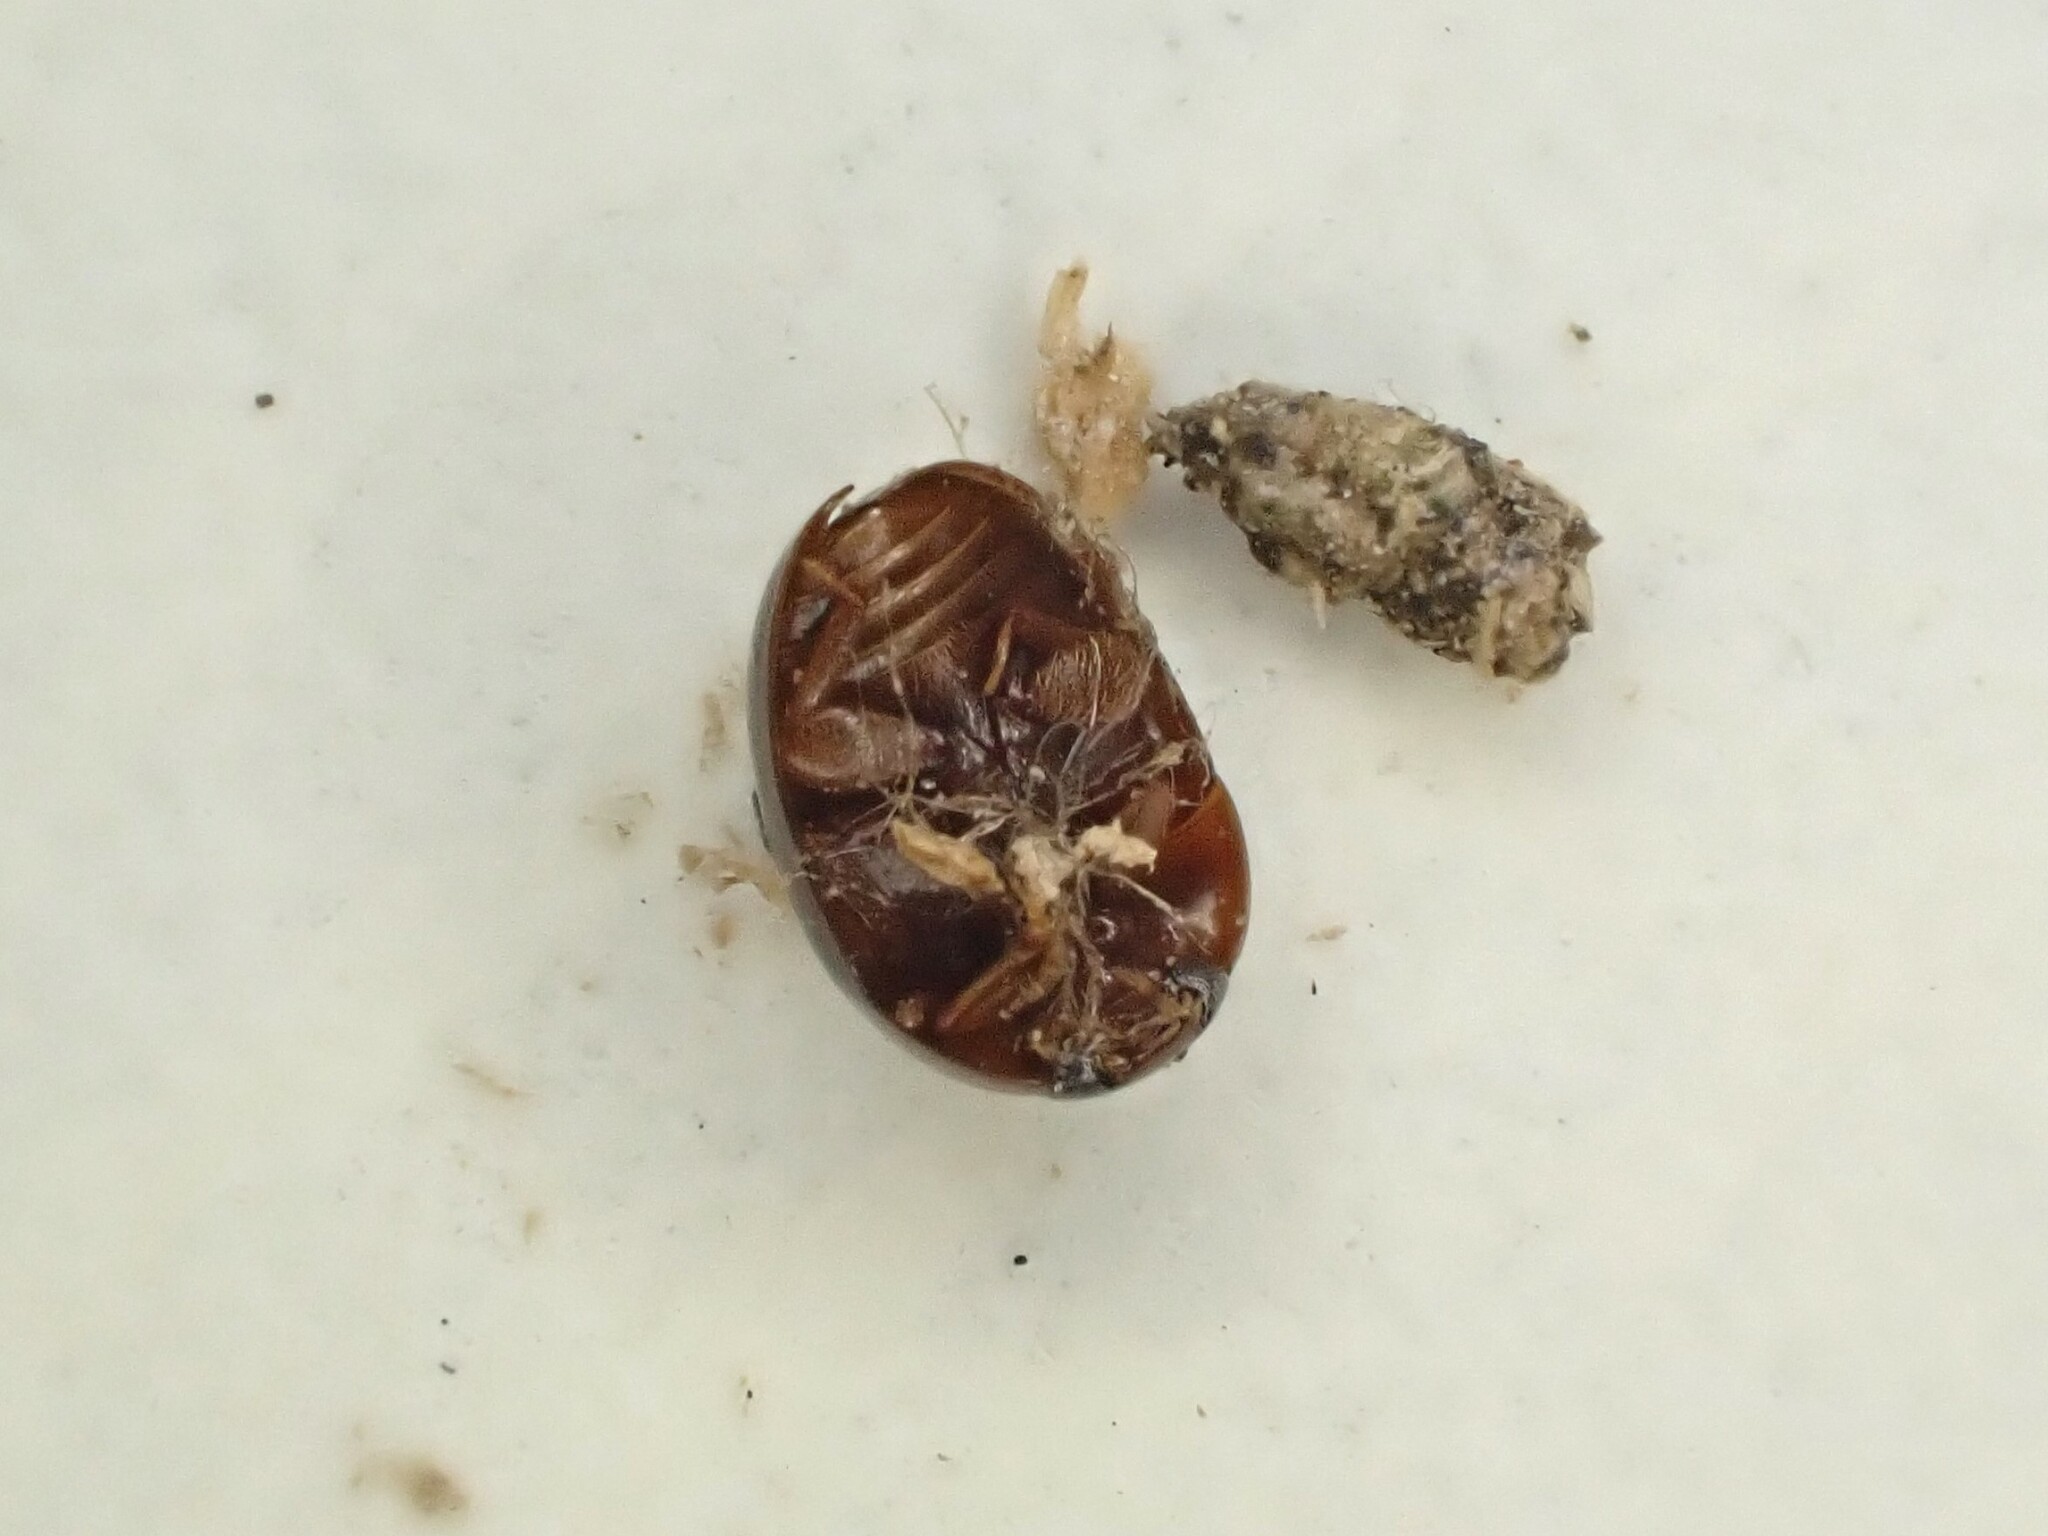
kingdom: Animalia
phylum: Arthropoda
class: Insecta
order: Coleoptera
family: Phalacridae
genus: Austroporus
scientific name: Austroporus
